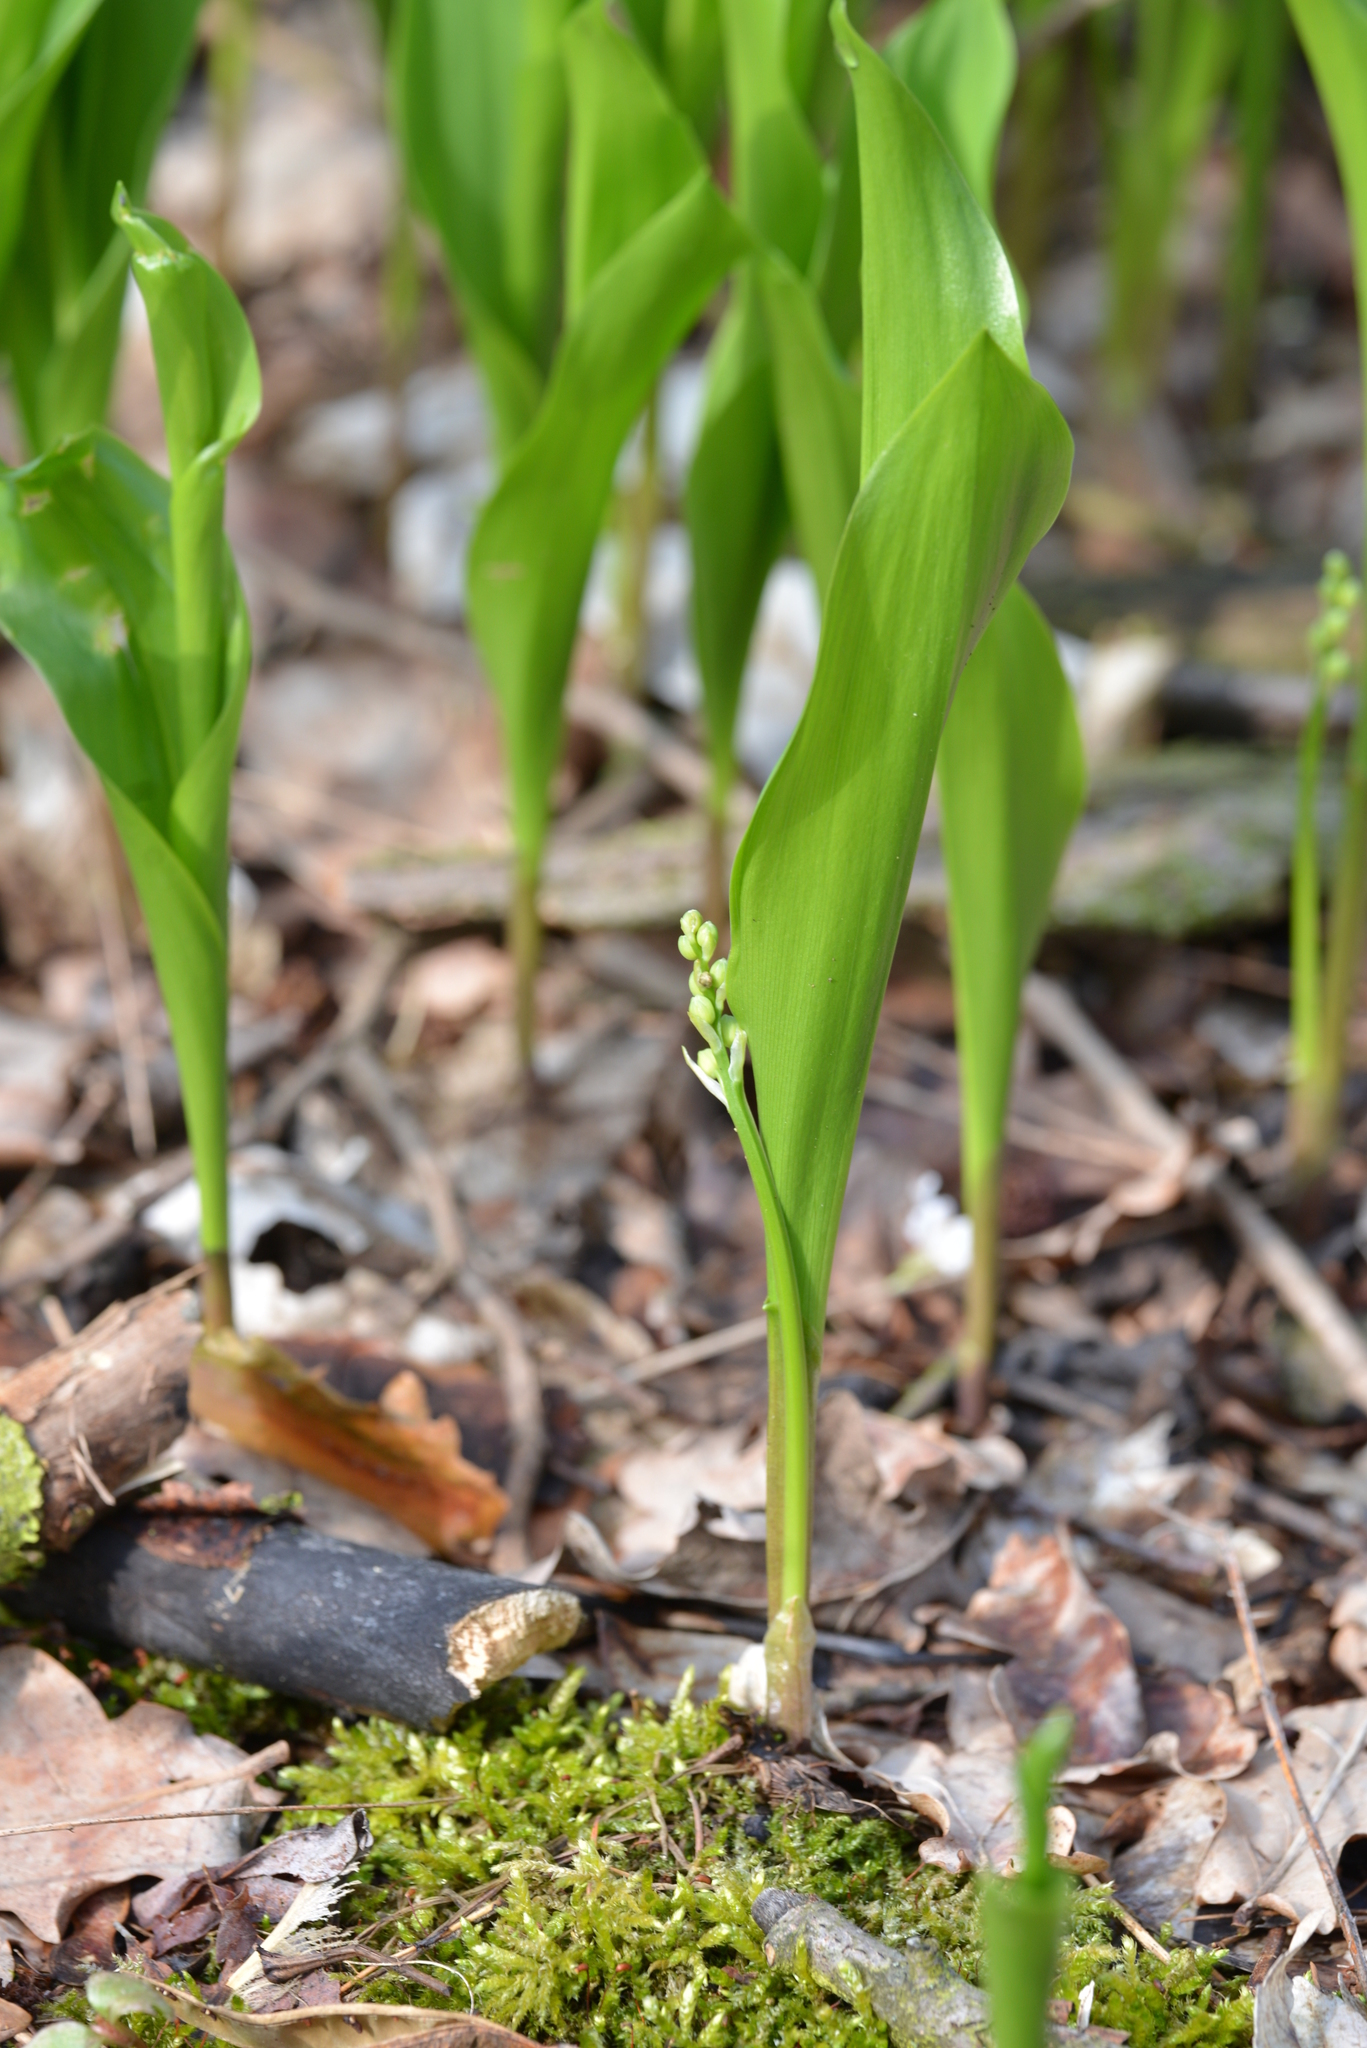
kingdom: Plantae
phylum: Tracheophyta
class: Liliopsida
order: Asparagales
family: Asparagaceae
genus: Convallaria
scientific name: Convallaria majalis
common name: Lily-of-the-valley
